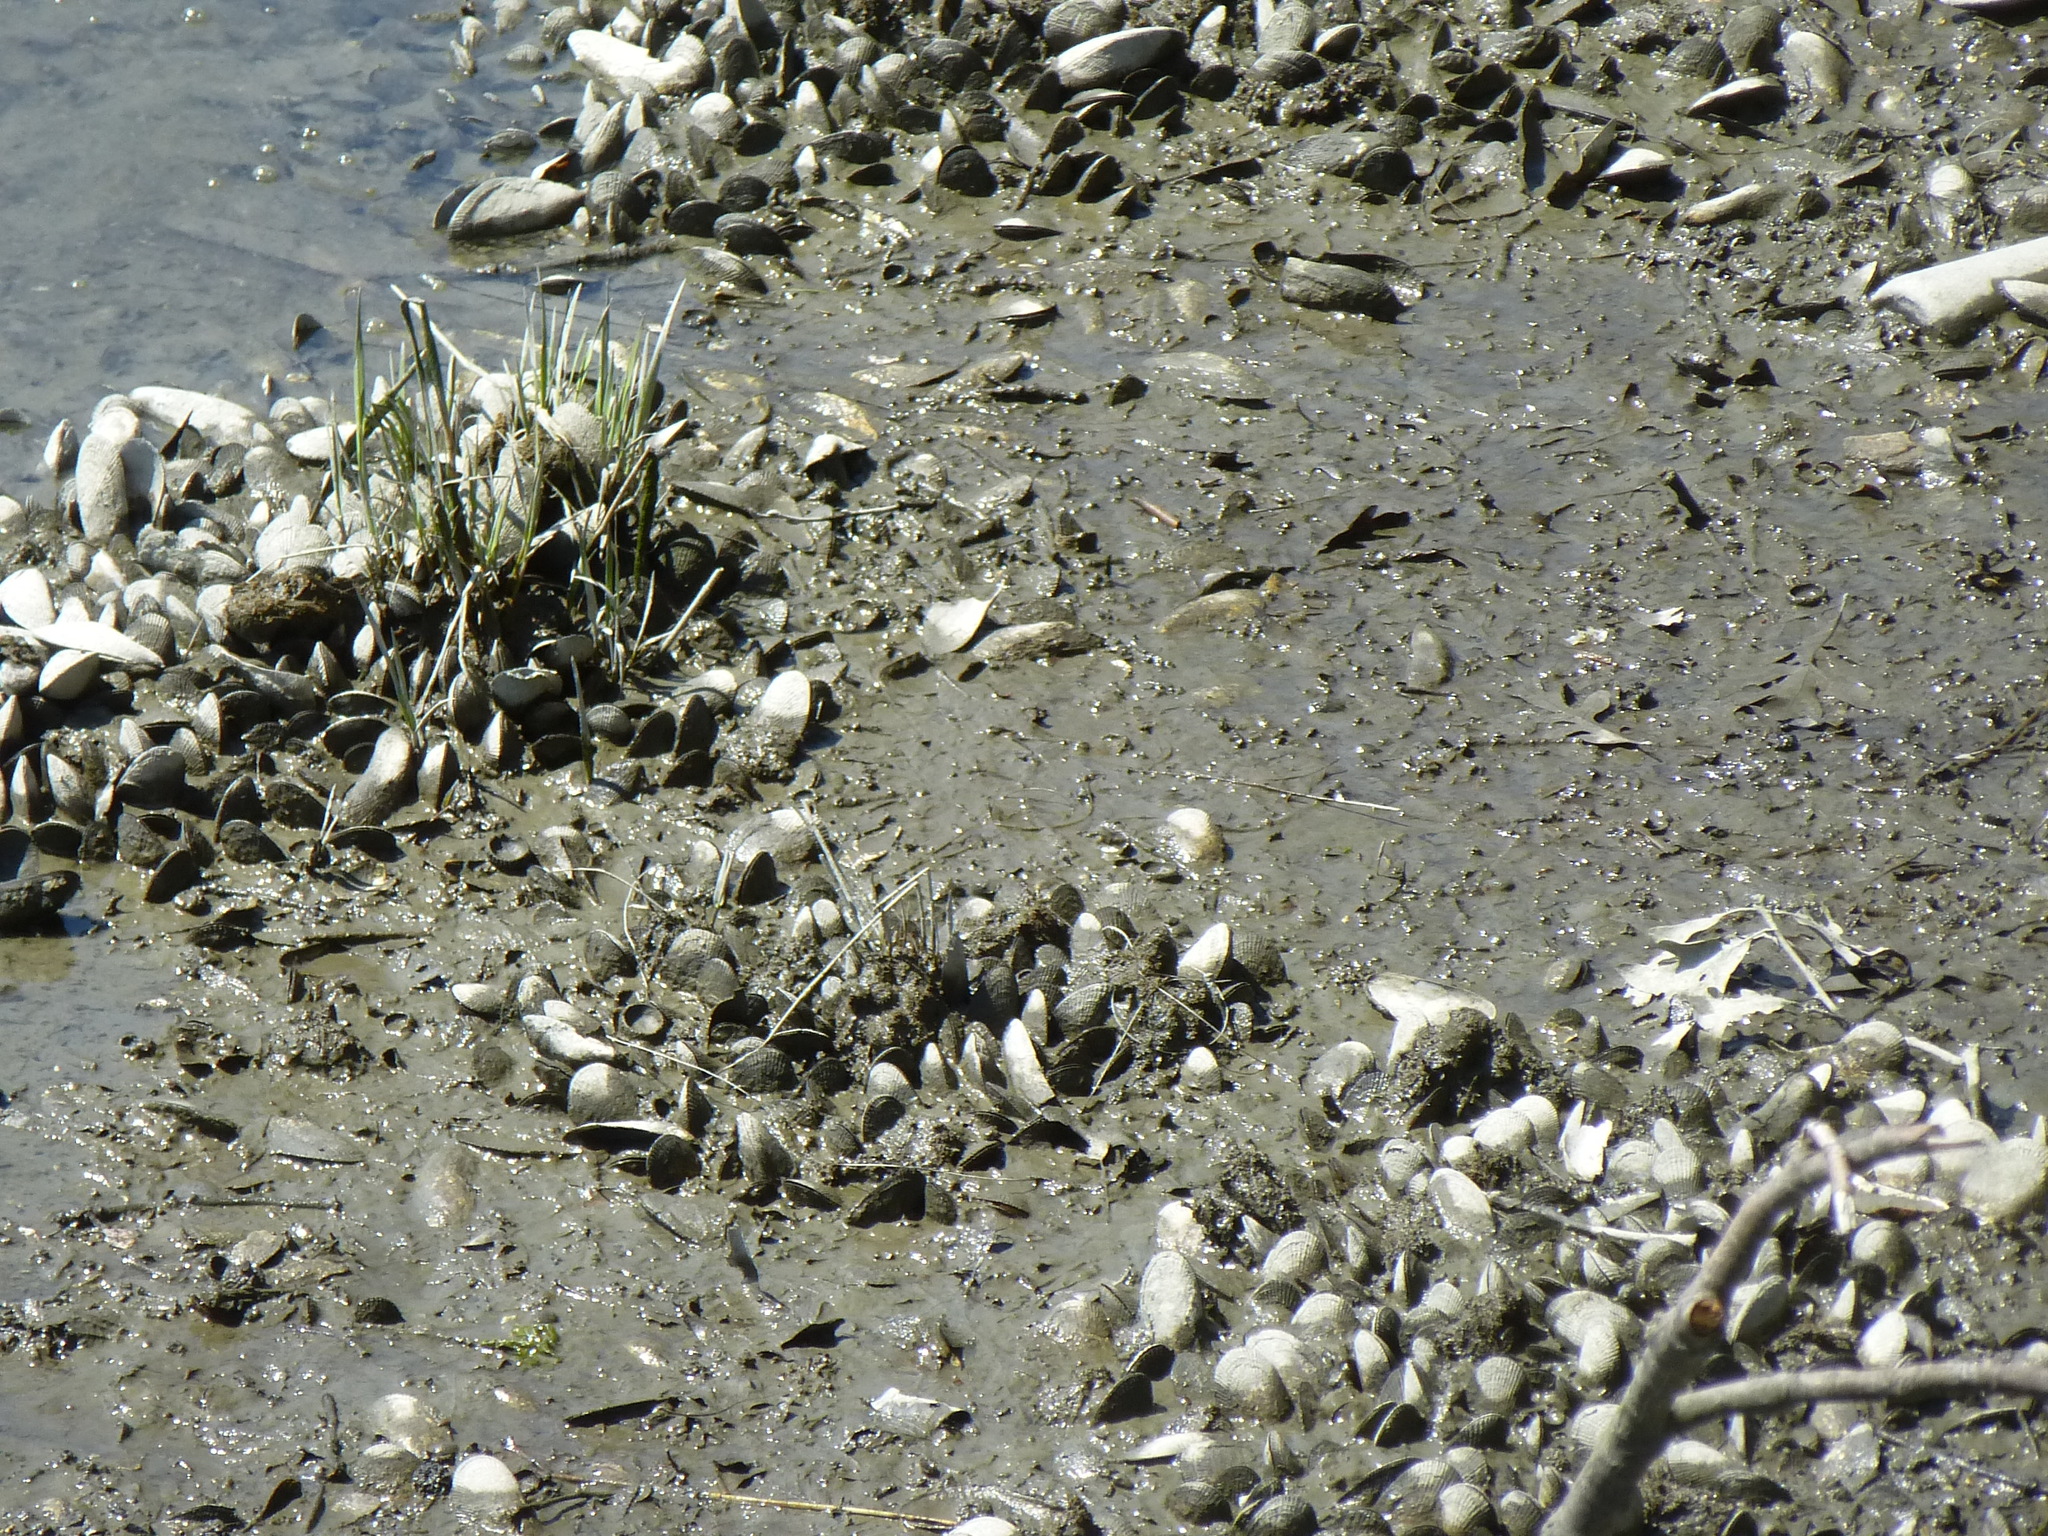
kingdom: Animalia
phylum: Mollusca
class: Bivalvia
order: Mytilida
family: Mytilidae
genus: Geukensia
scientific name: Geukensia demissa
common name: Ribbed mussel
